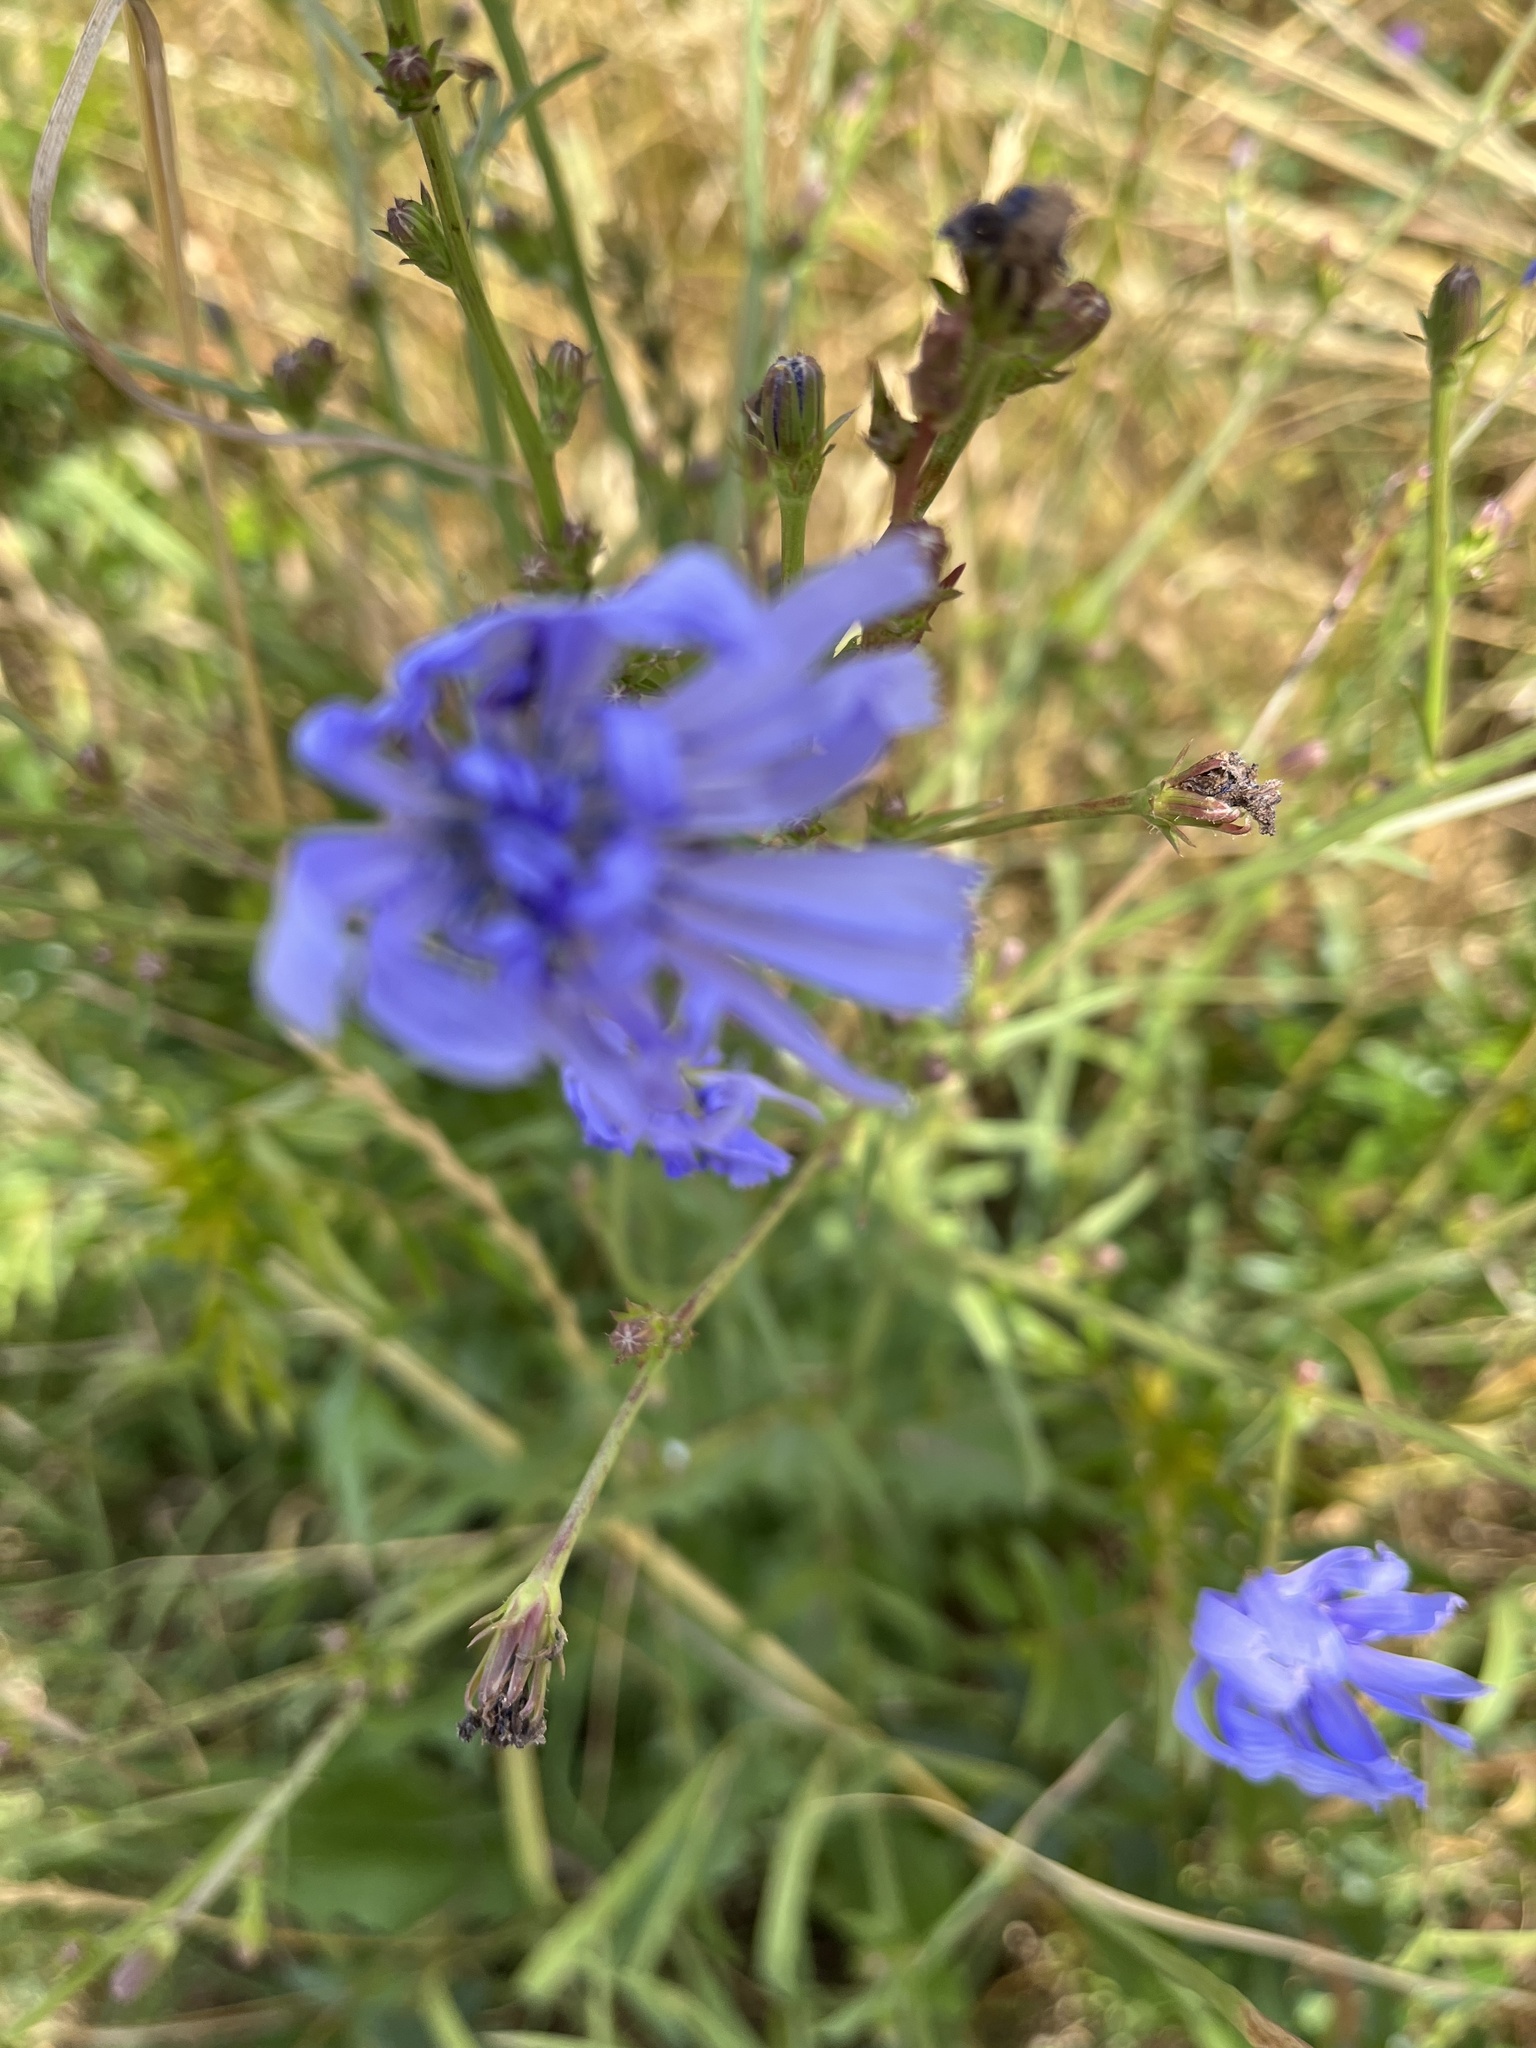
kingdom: Plantae
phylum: Tracheophyta
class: Magnoliopsida
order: Asterales
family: Asteraceae
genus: Cichorium
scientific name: Cichorium intybus
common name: Chicory
